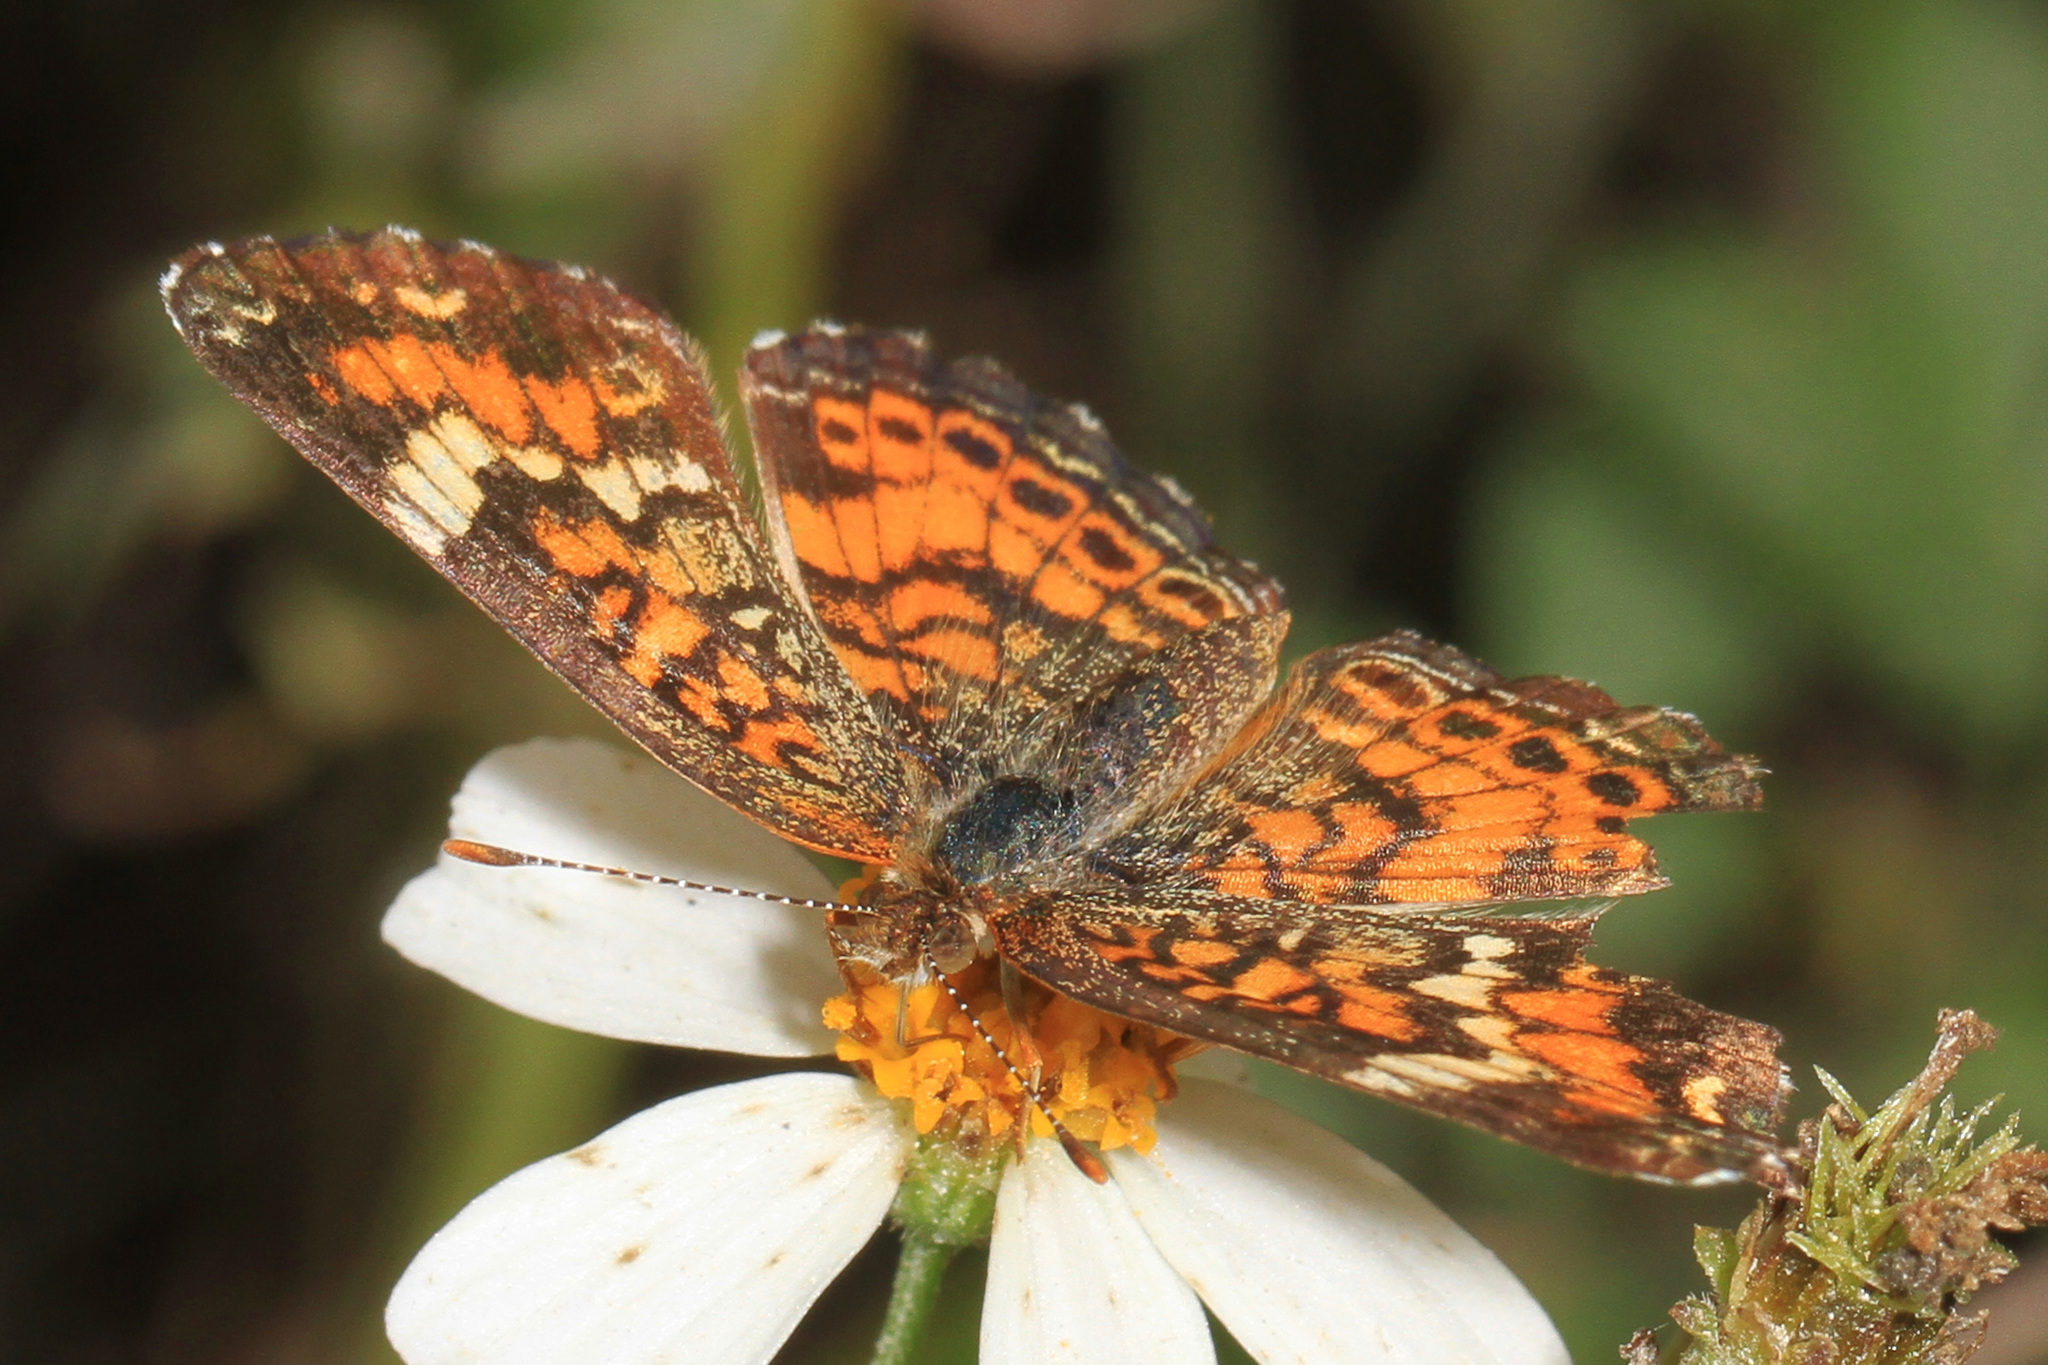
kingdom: Animalia
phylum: Arthropoda
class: Insecta
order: Lepidoptera
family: Nymphalidae
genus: Phyciodes
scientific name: Phyciodes phaon
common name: Phaon crescent
